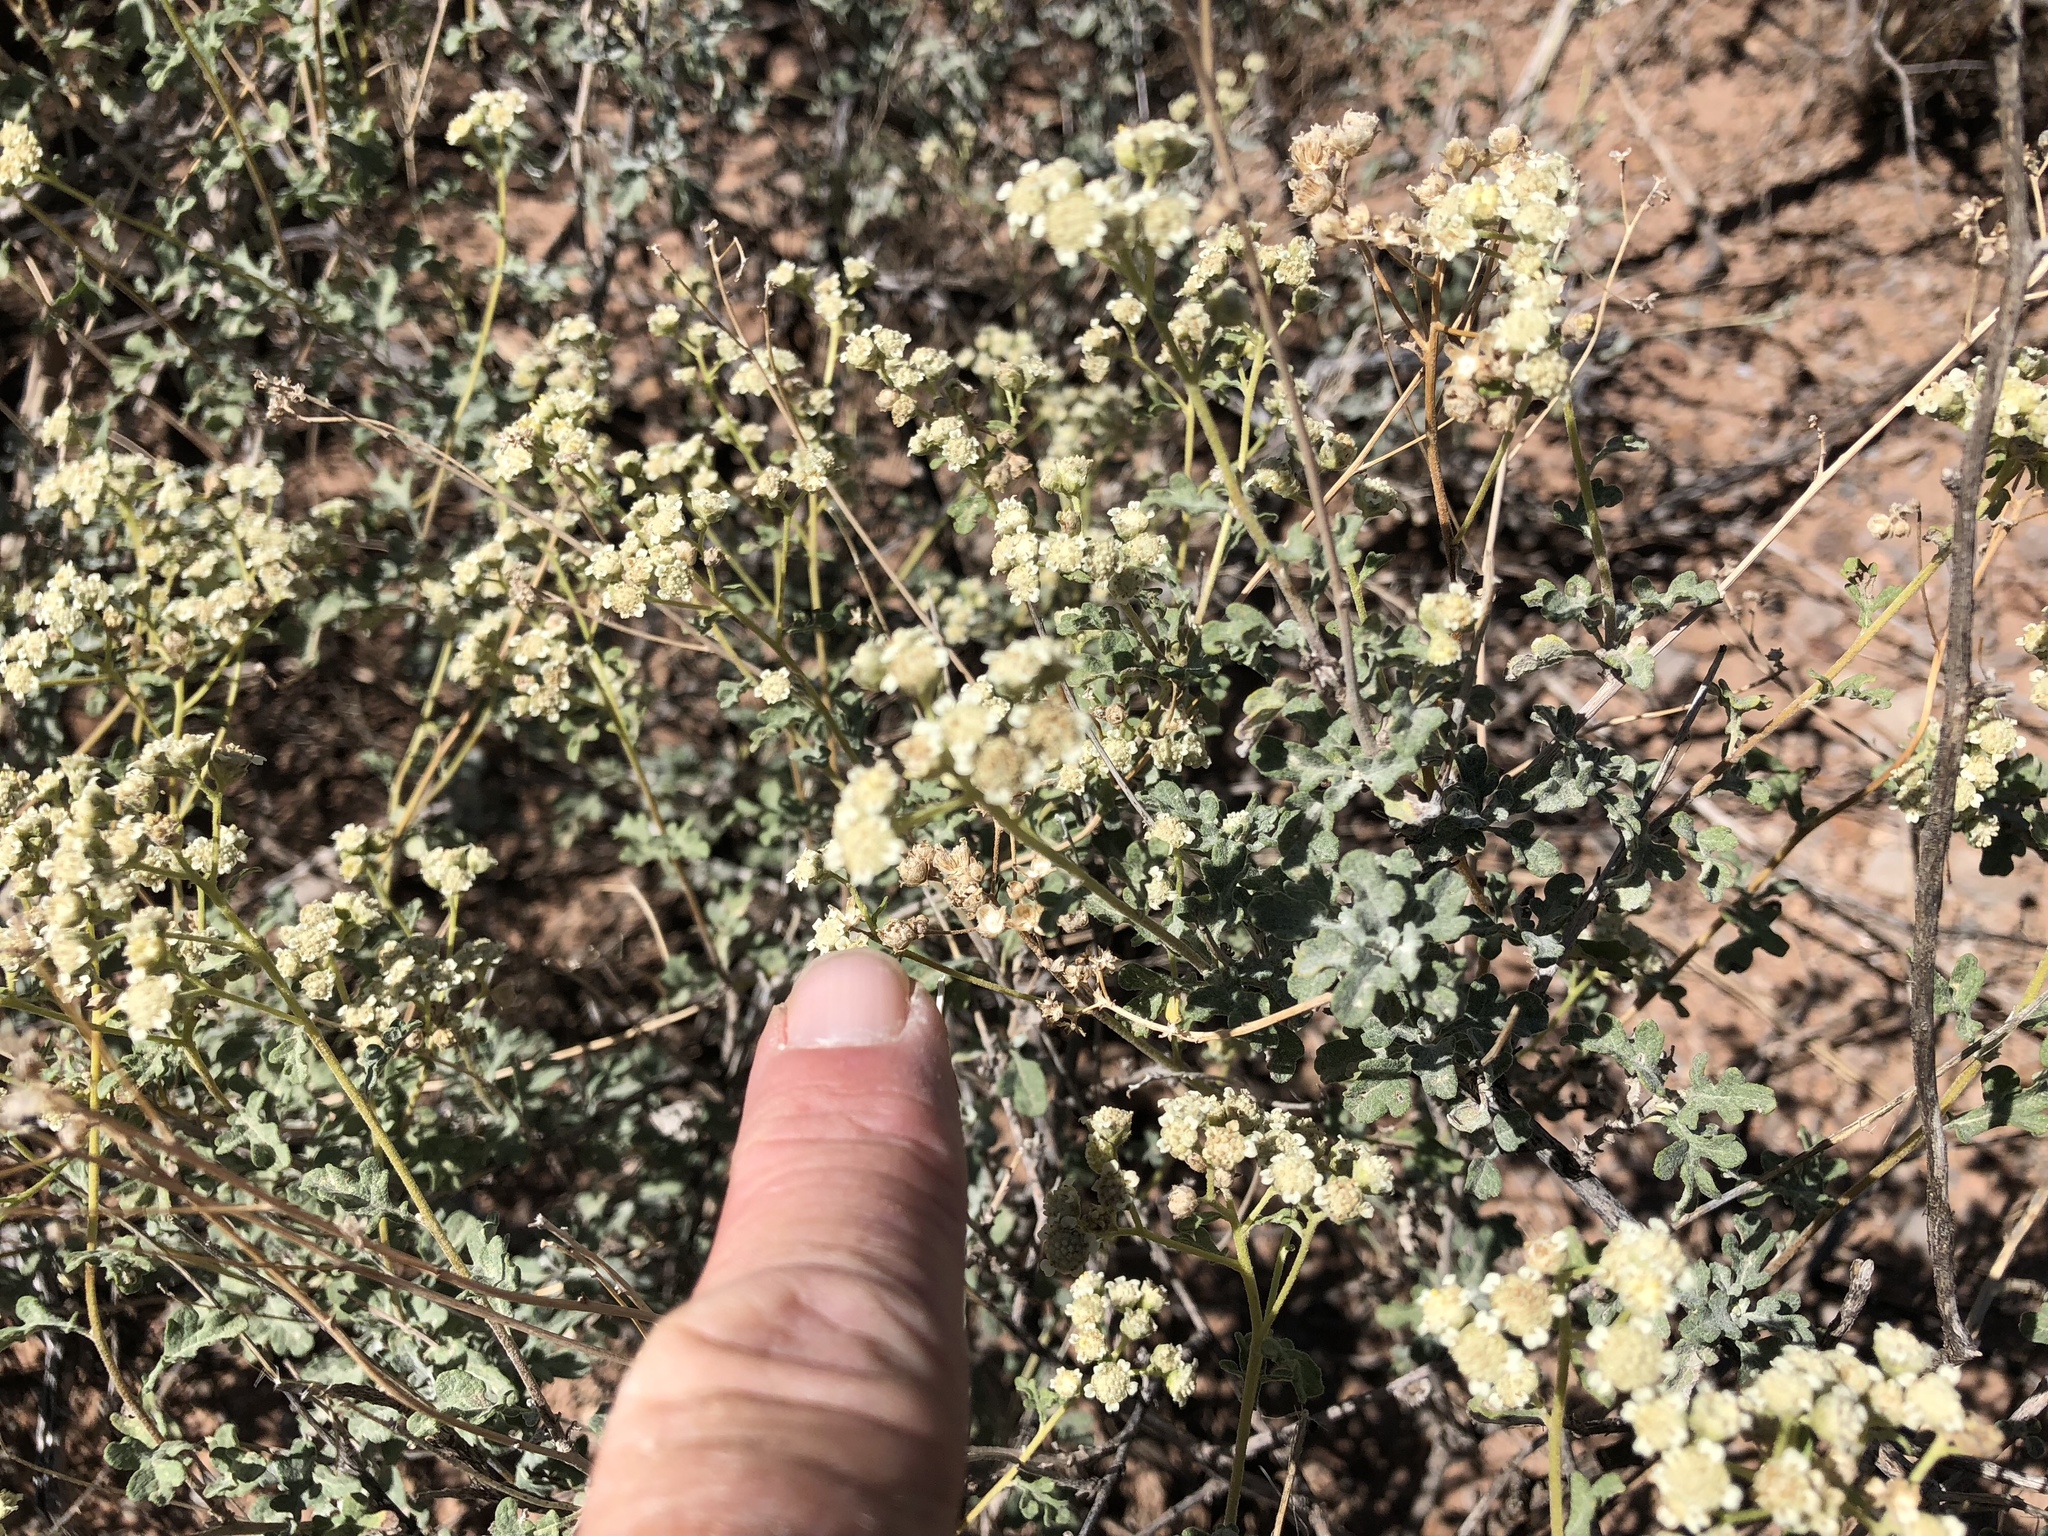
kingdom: Plantae
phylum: Tracheophyta
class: Magnoliopsida
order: Asterales
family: Asteraceae
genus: Parthenium
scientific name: Parthenium incanum
